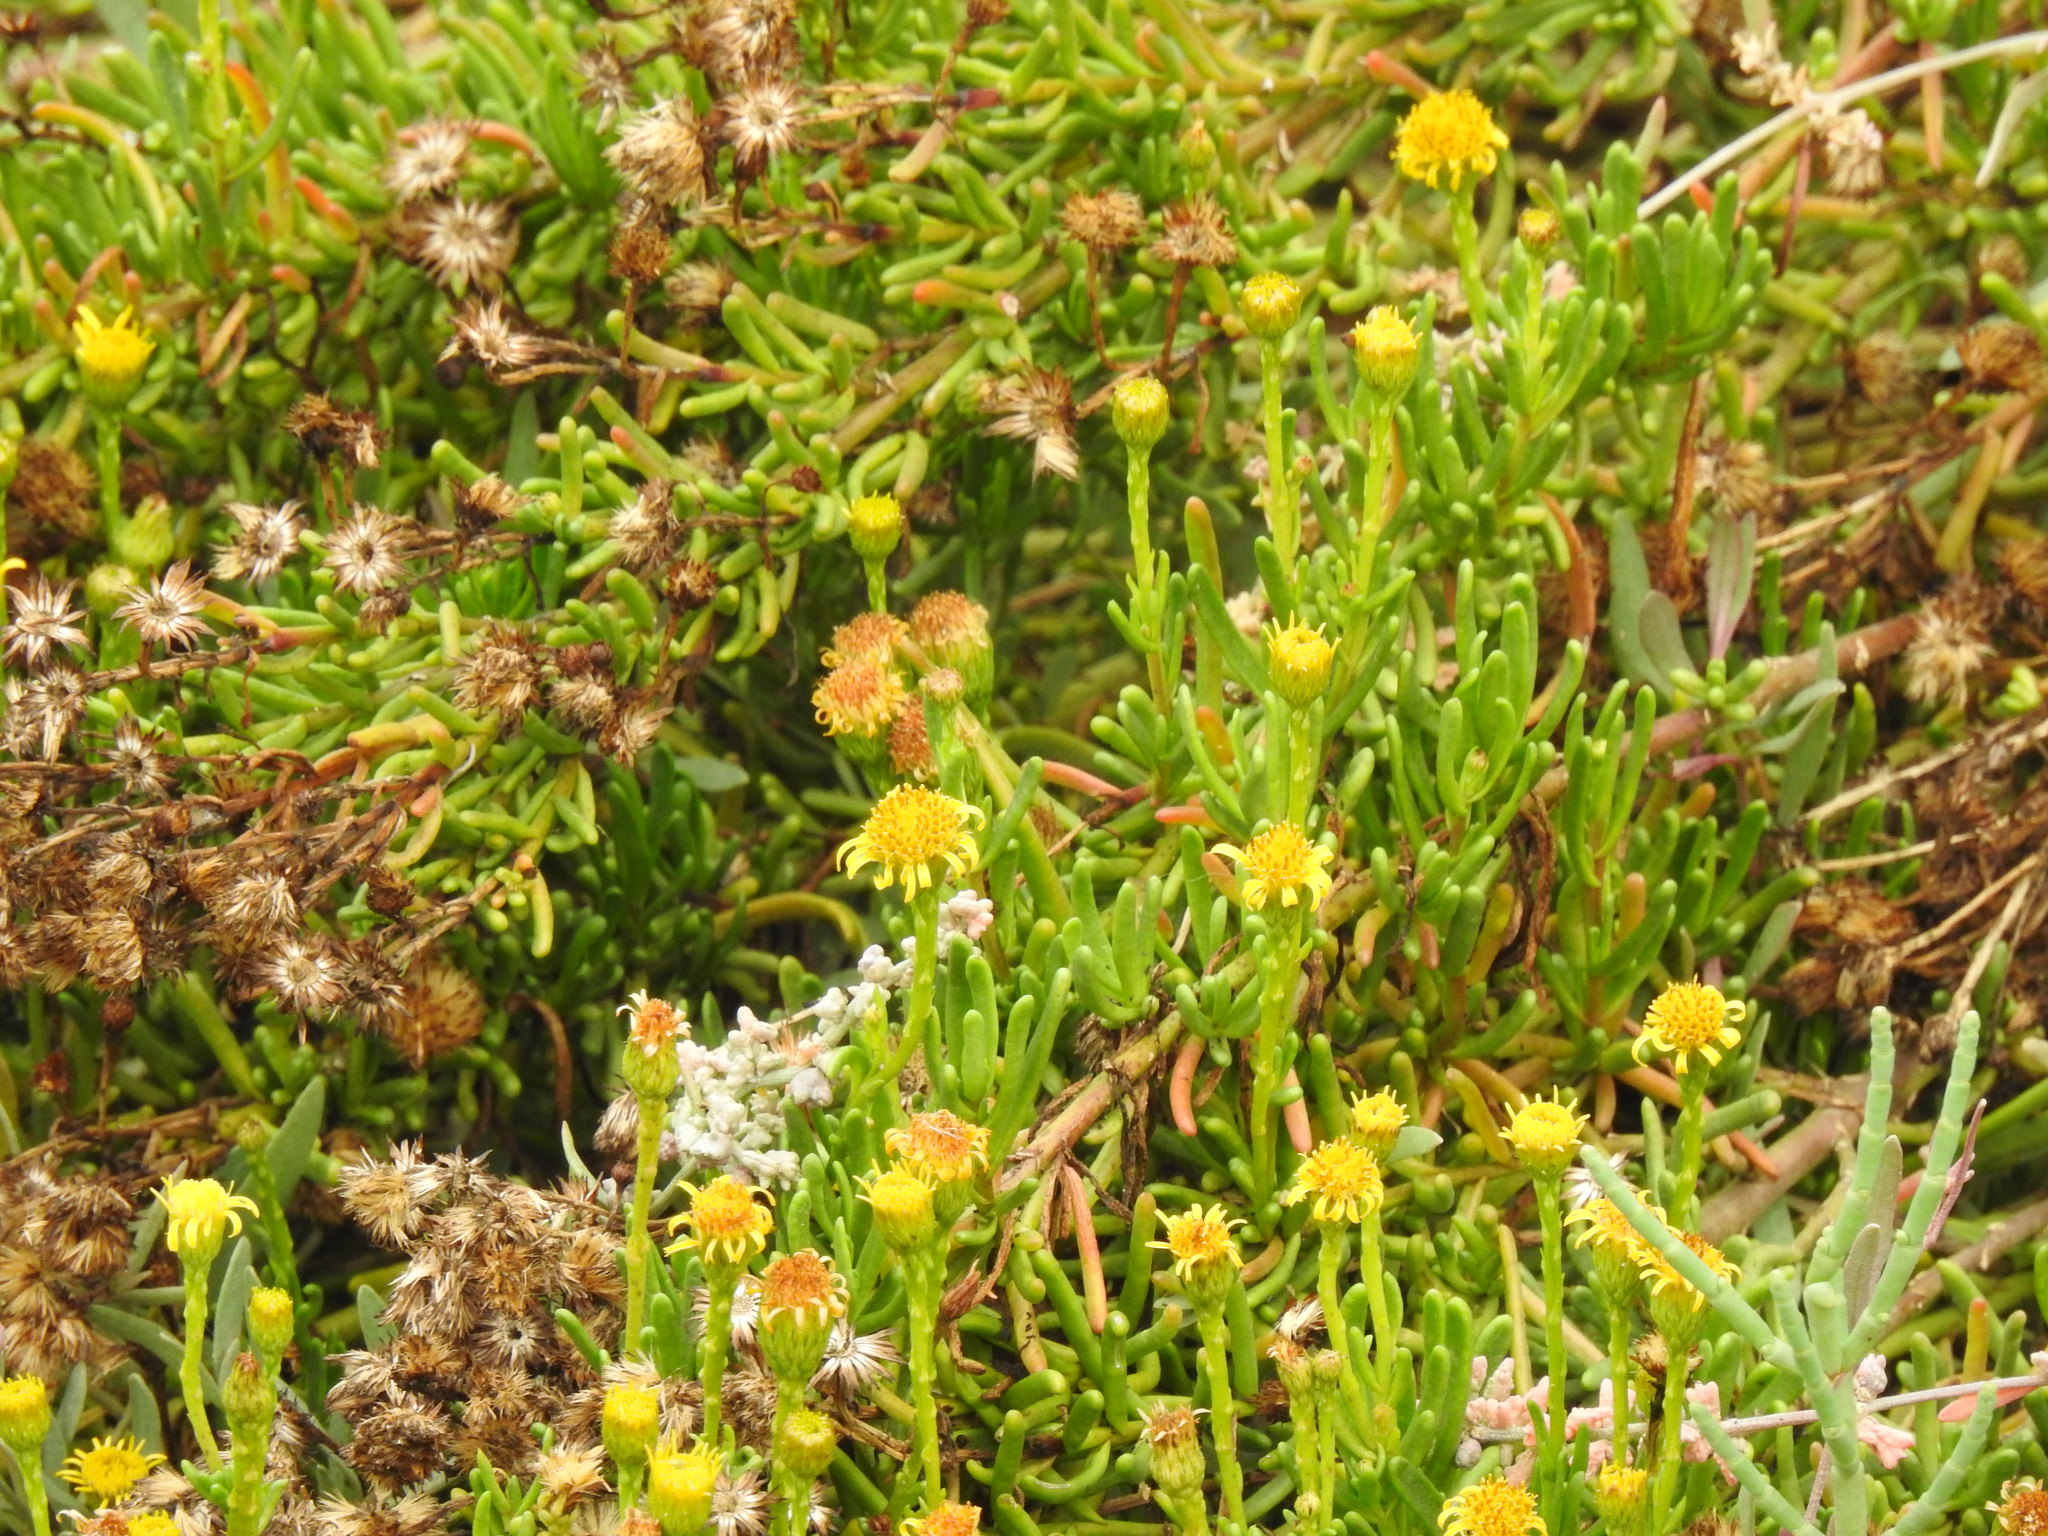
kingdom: Plantae
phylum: Tracheophyta
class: Magnoliopsida
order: Asterales
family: Asteraceae
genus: Limbarda
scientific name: Limbarda crithmoides
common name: Golden samphire
